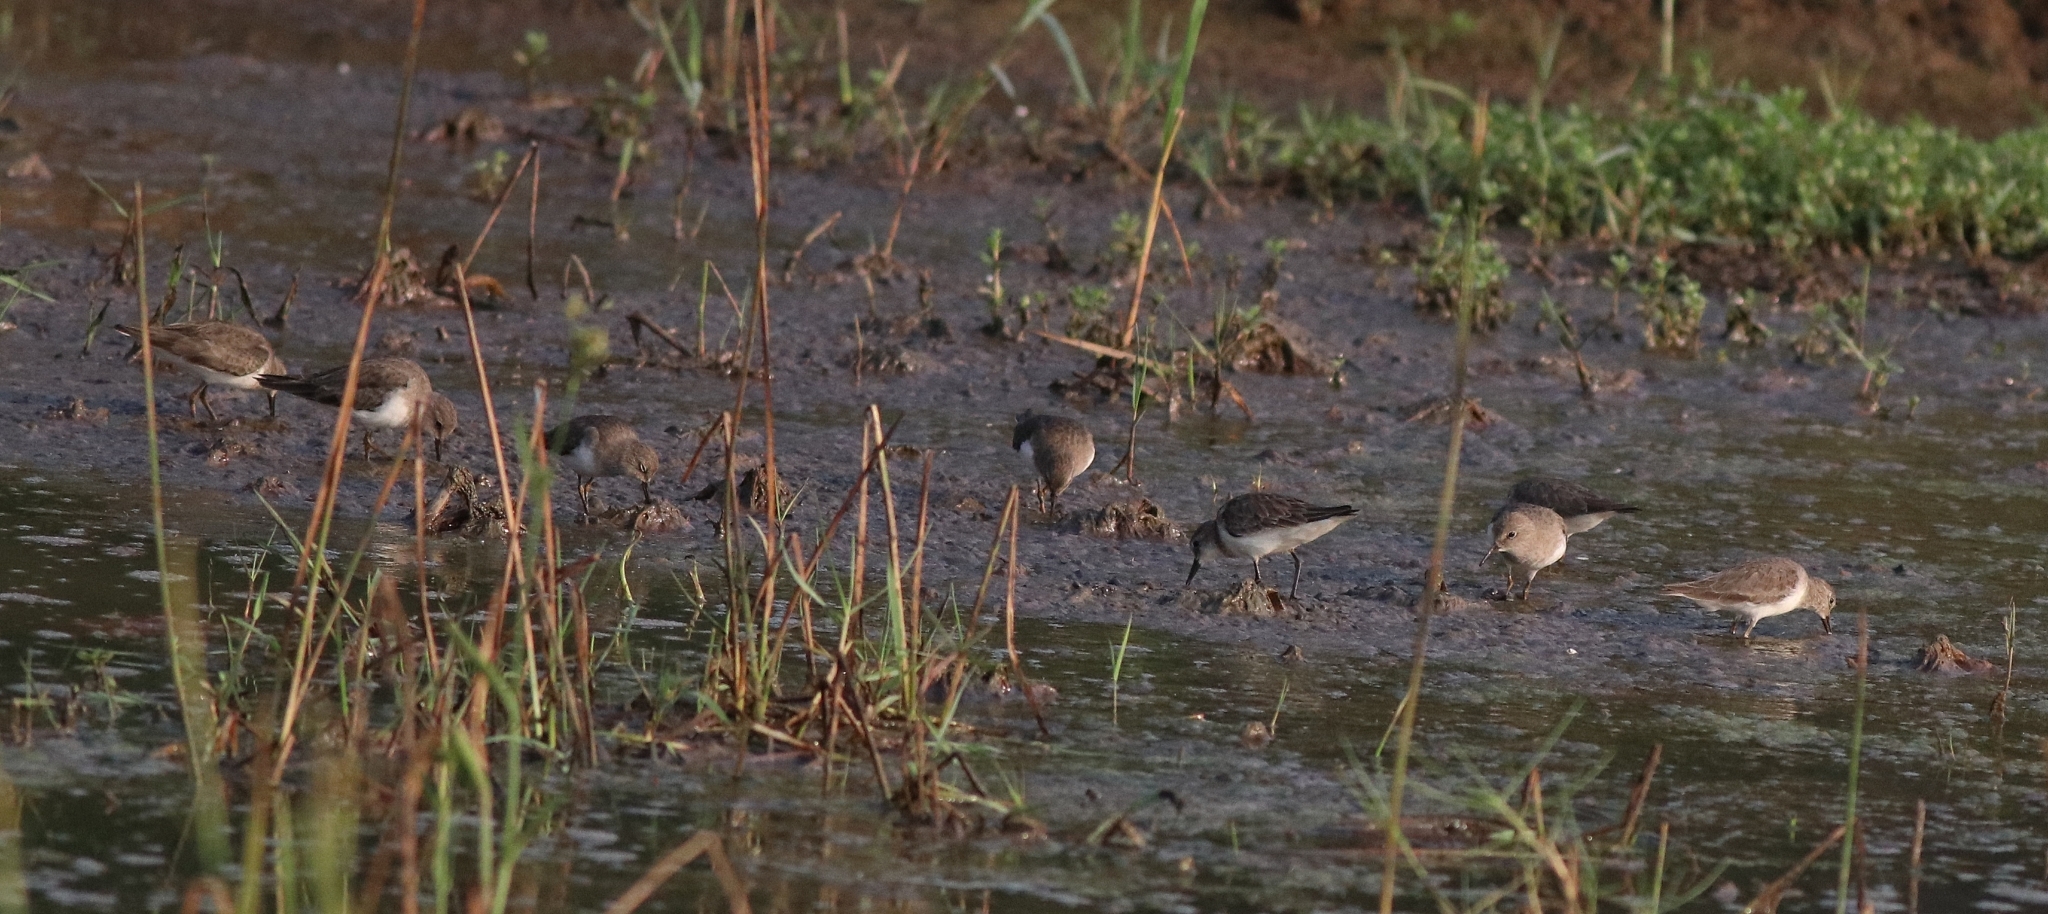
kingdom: Animalia
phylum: Chordata
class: Aves
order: Charadriiformes
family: Scolopacidae
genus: Calidris
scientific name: Calidris temminckii
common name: Temminck's stint
